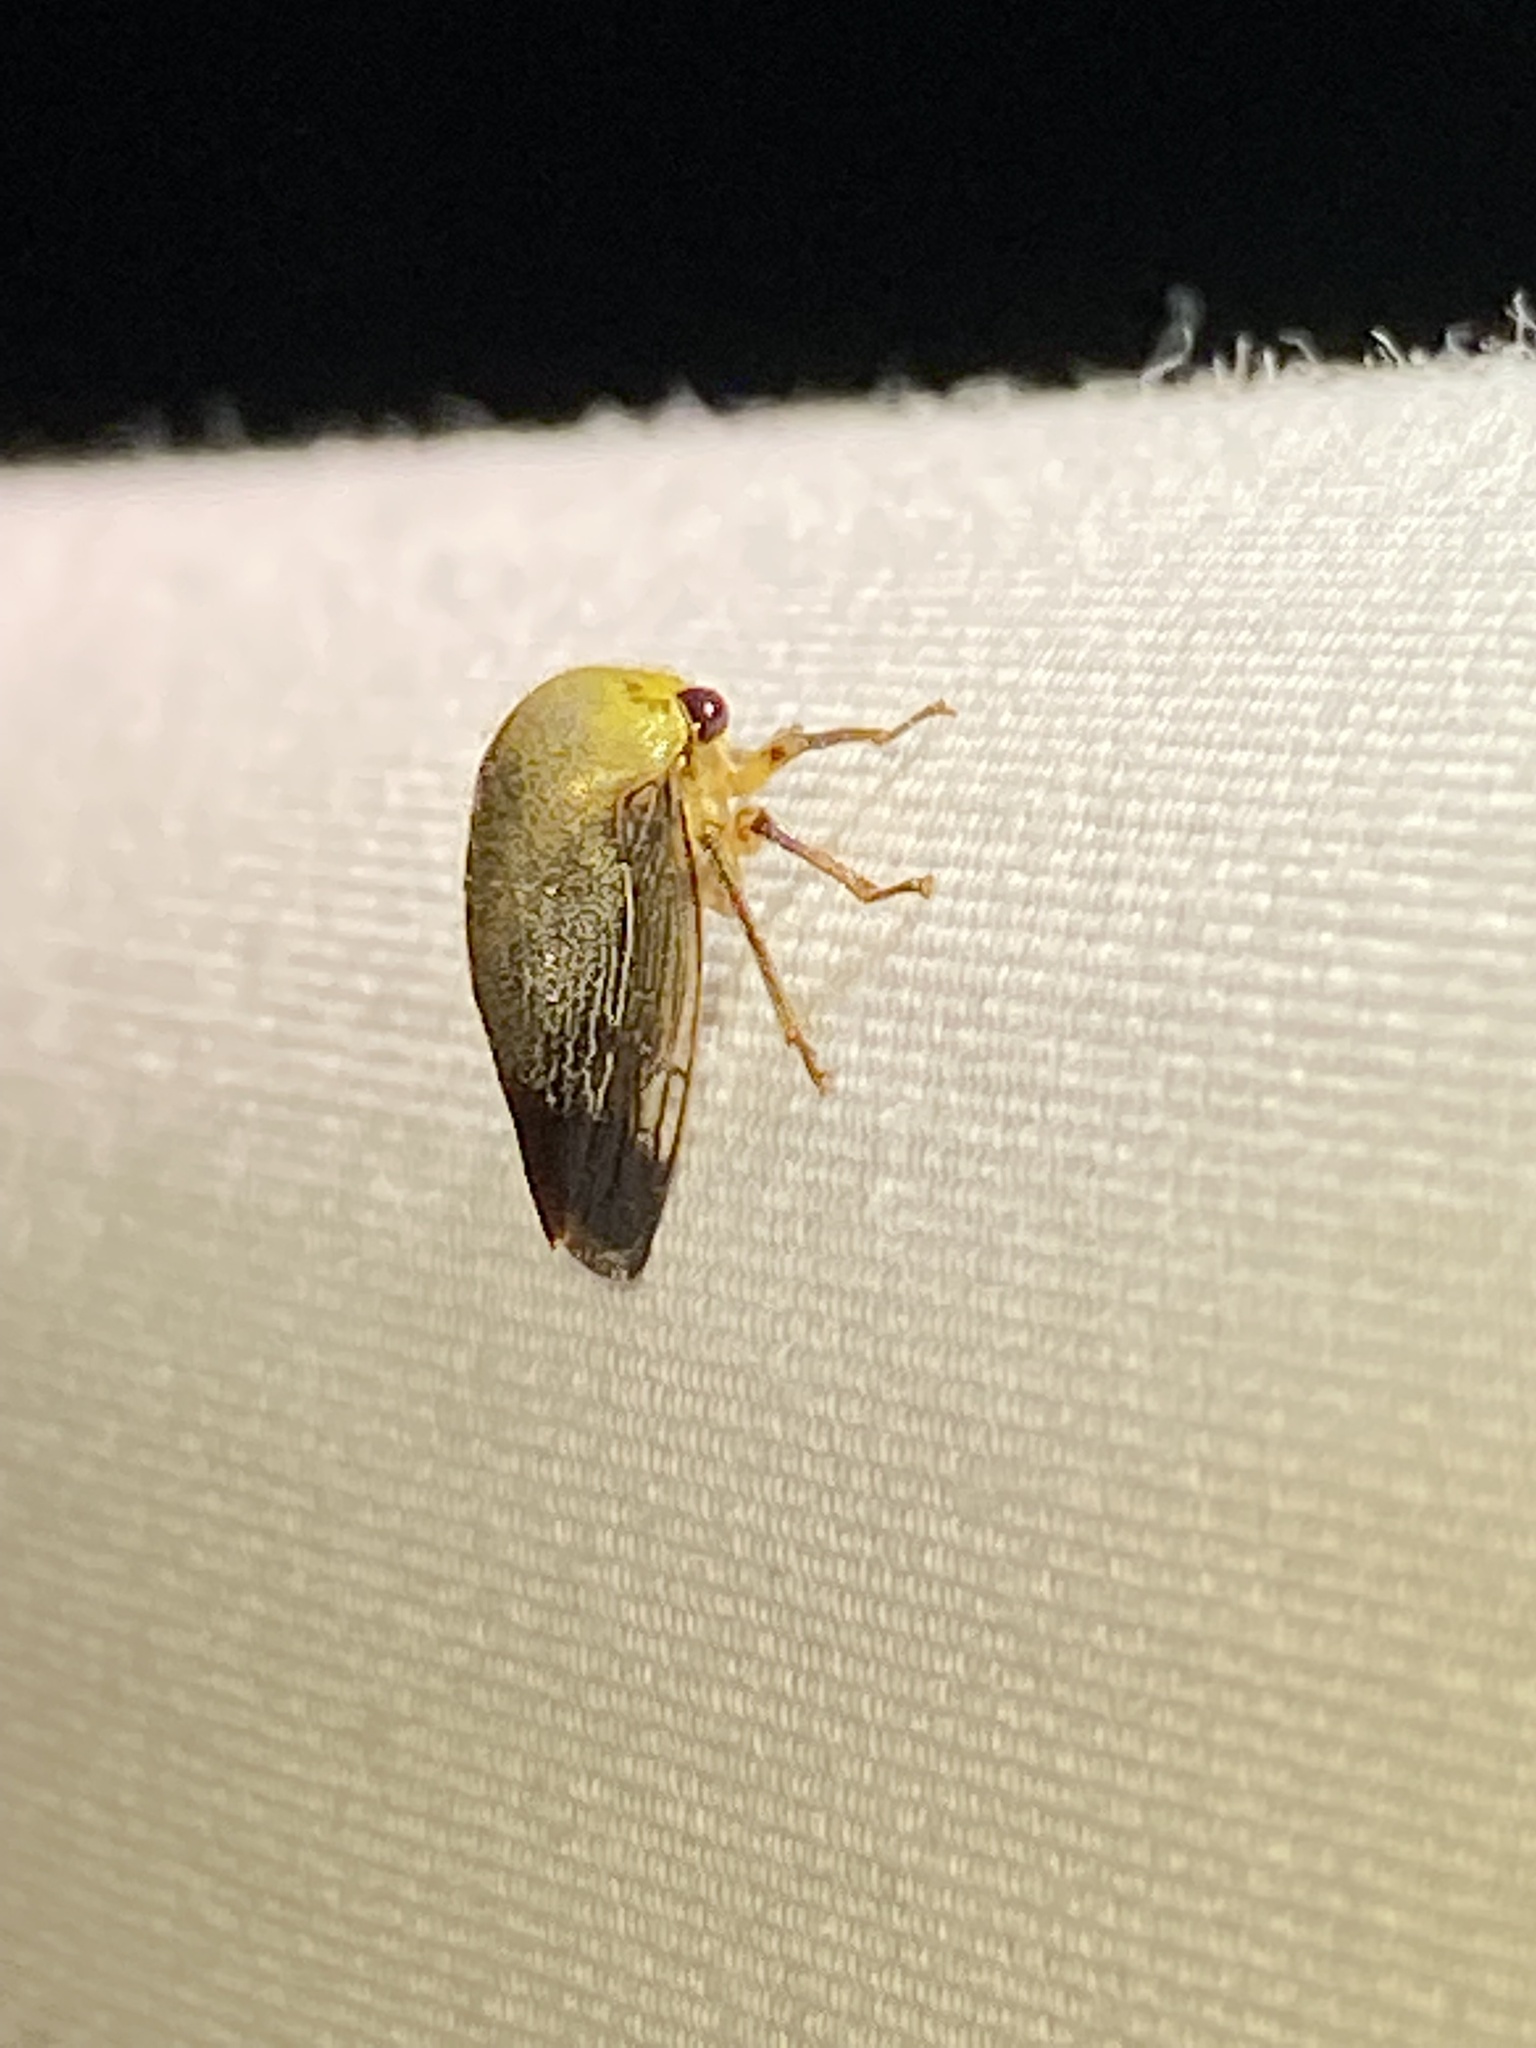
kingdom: Animalia
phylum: Arthropoda
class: Insecta
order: Hemiptera
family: Membracidae
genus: Carynota
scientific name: Carynota mera
